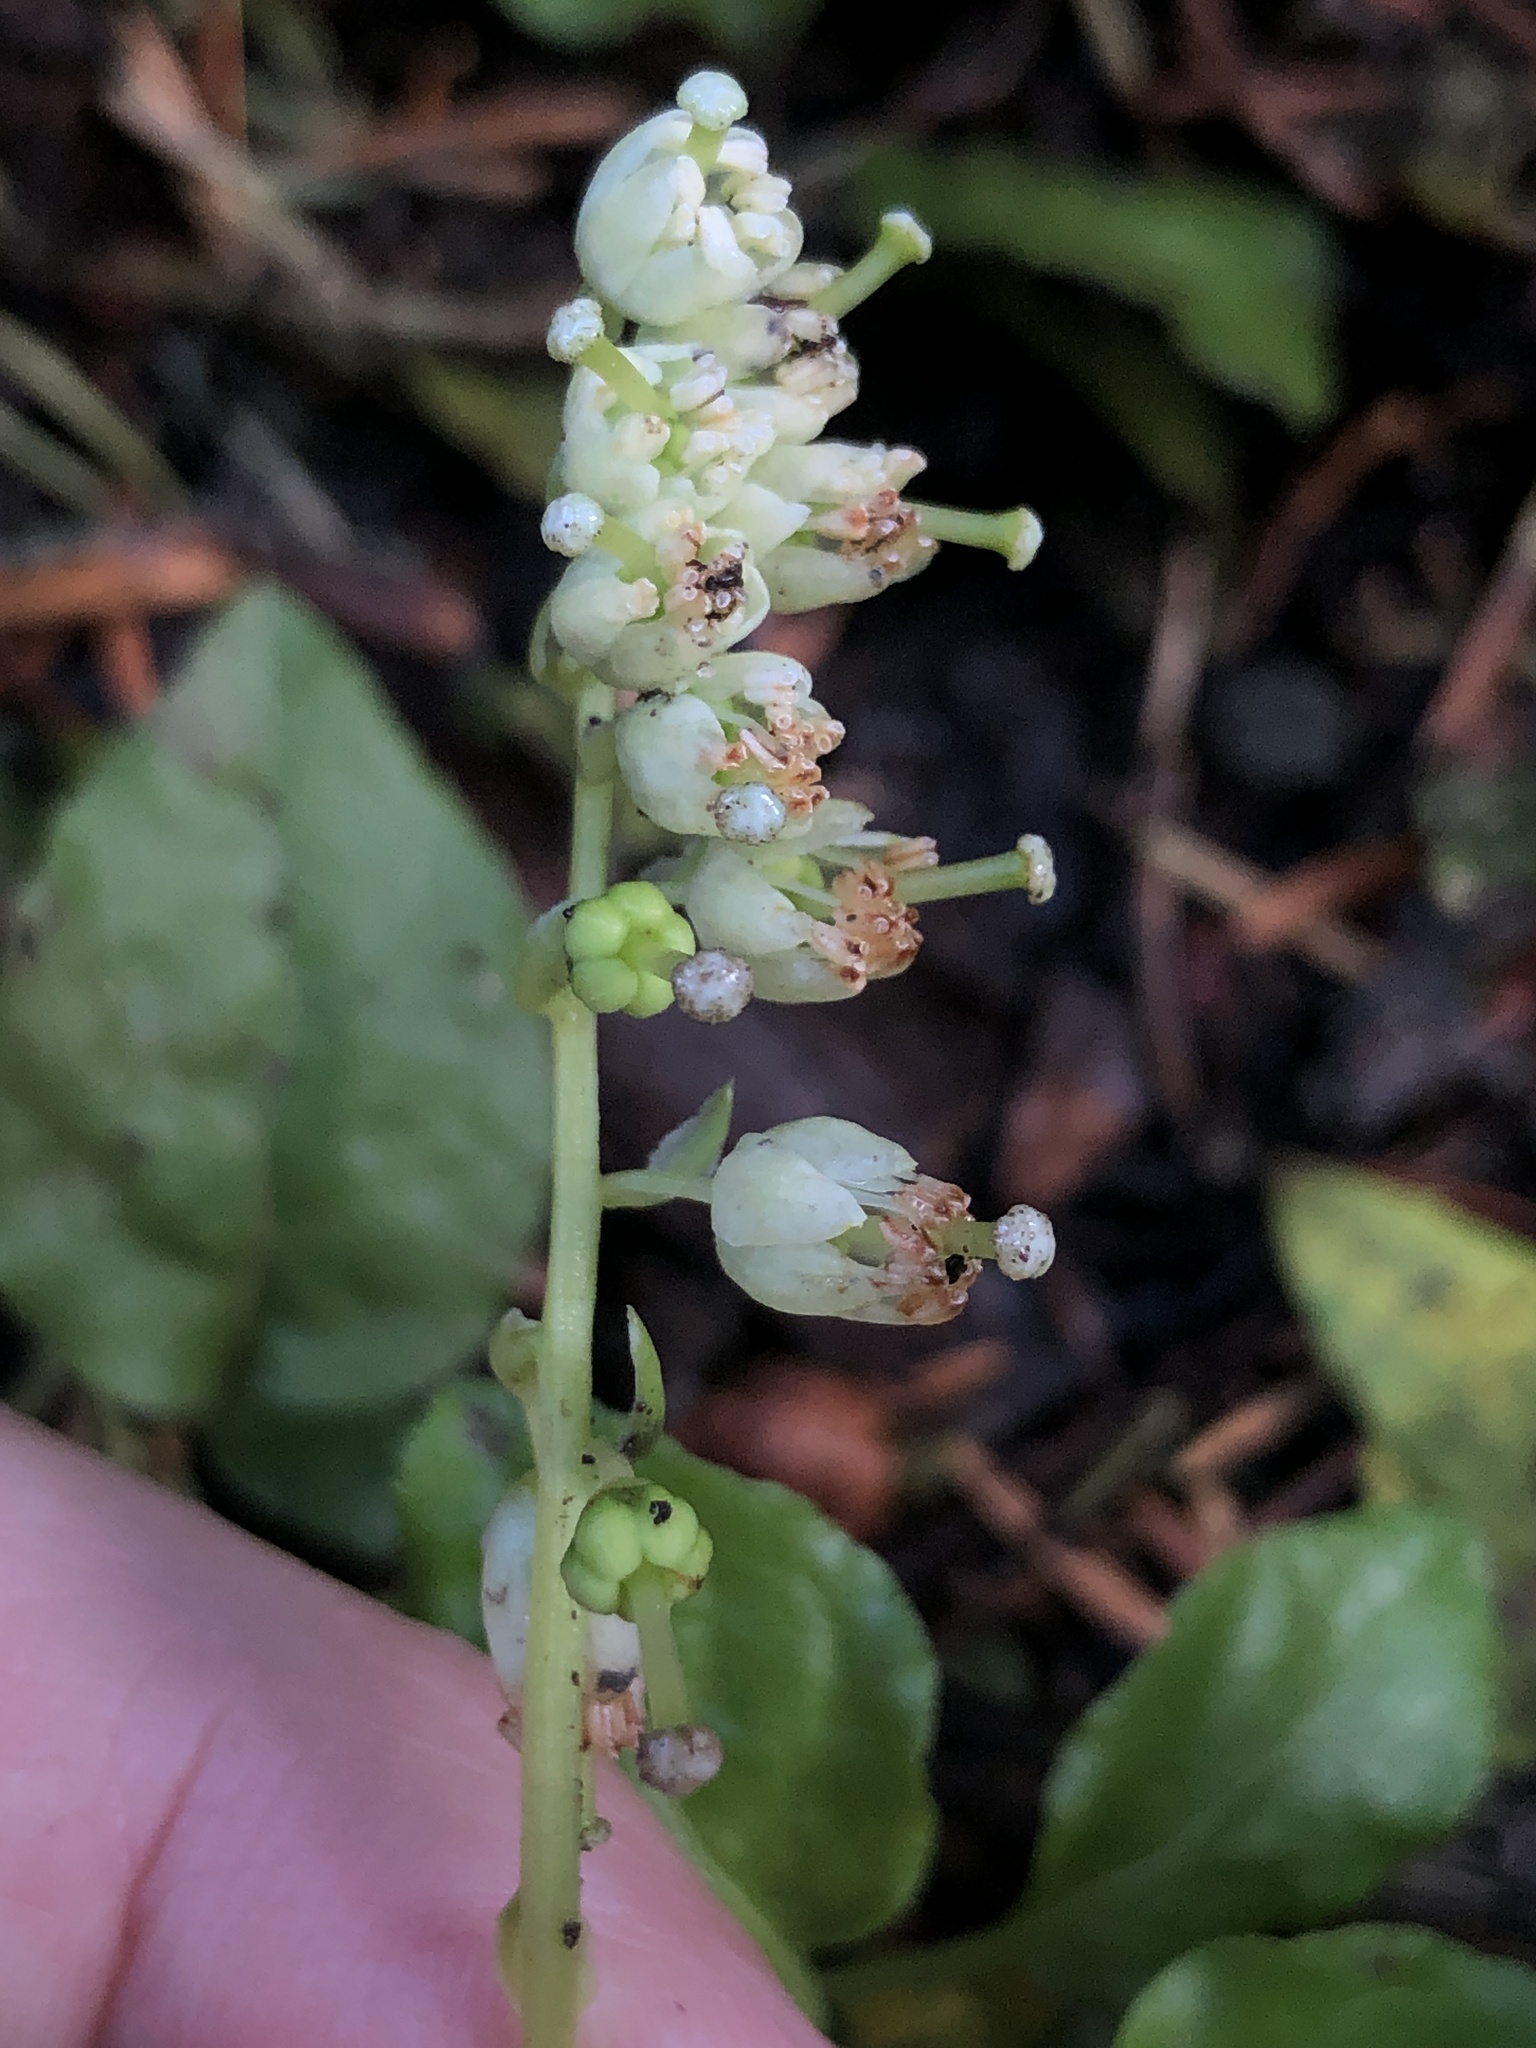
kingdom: Plantae
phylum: Tracheophyta
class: Magnoliopsida
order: Ericales
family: Ericaceae
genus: Orthilia
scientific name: Orthilia secunda
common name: One-sided orthilia
